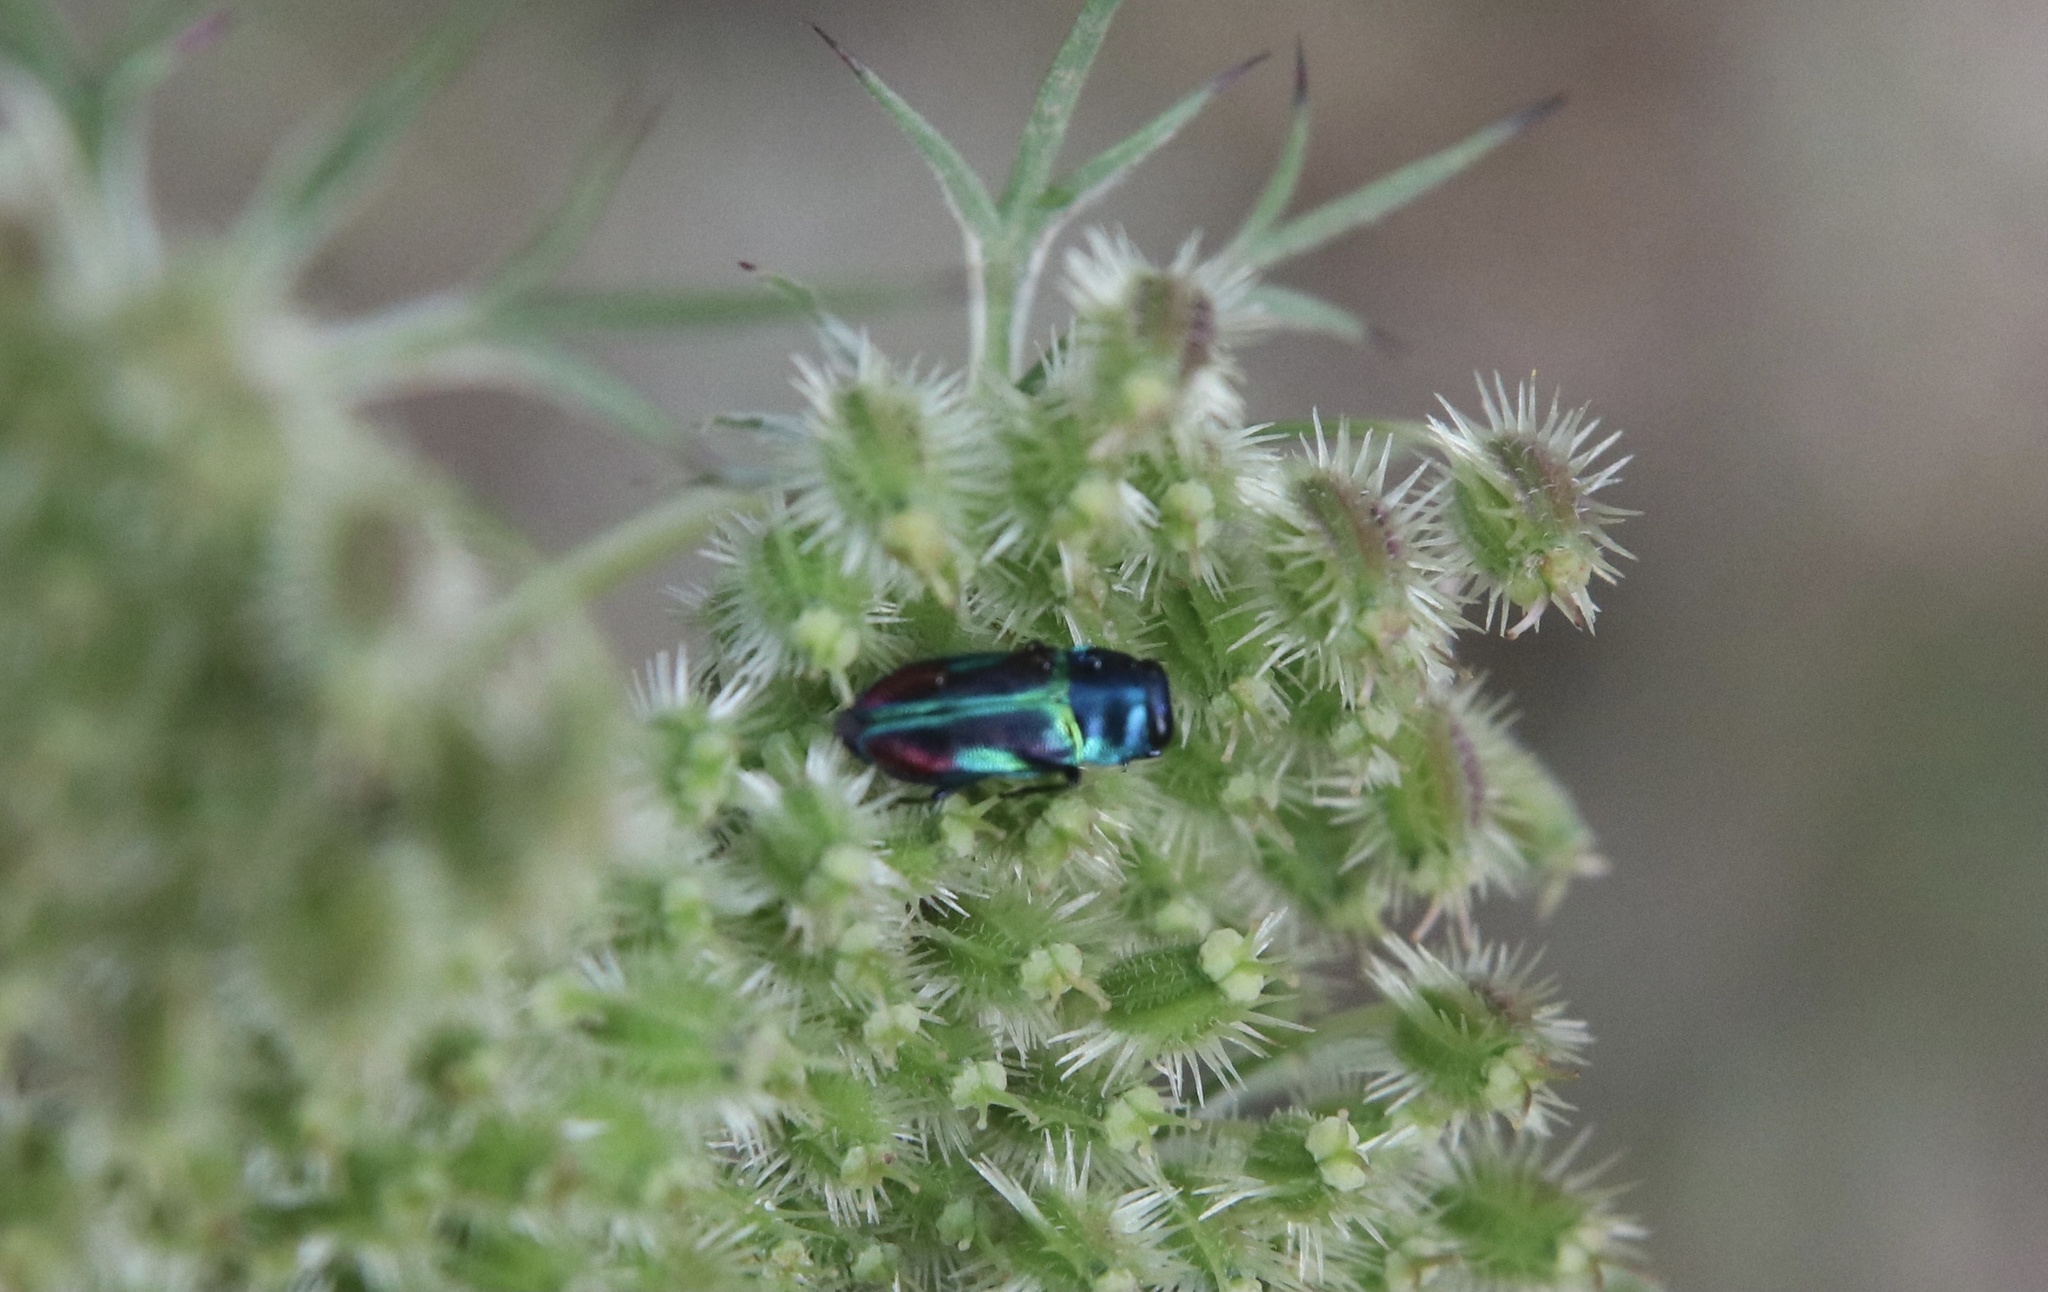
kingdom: Animalia
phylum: Arthropoda
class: Insecta
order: Coleoptera
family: Buprestidae
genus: Bilyaxia
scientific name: Bilyaxia concinna
